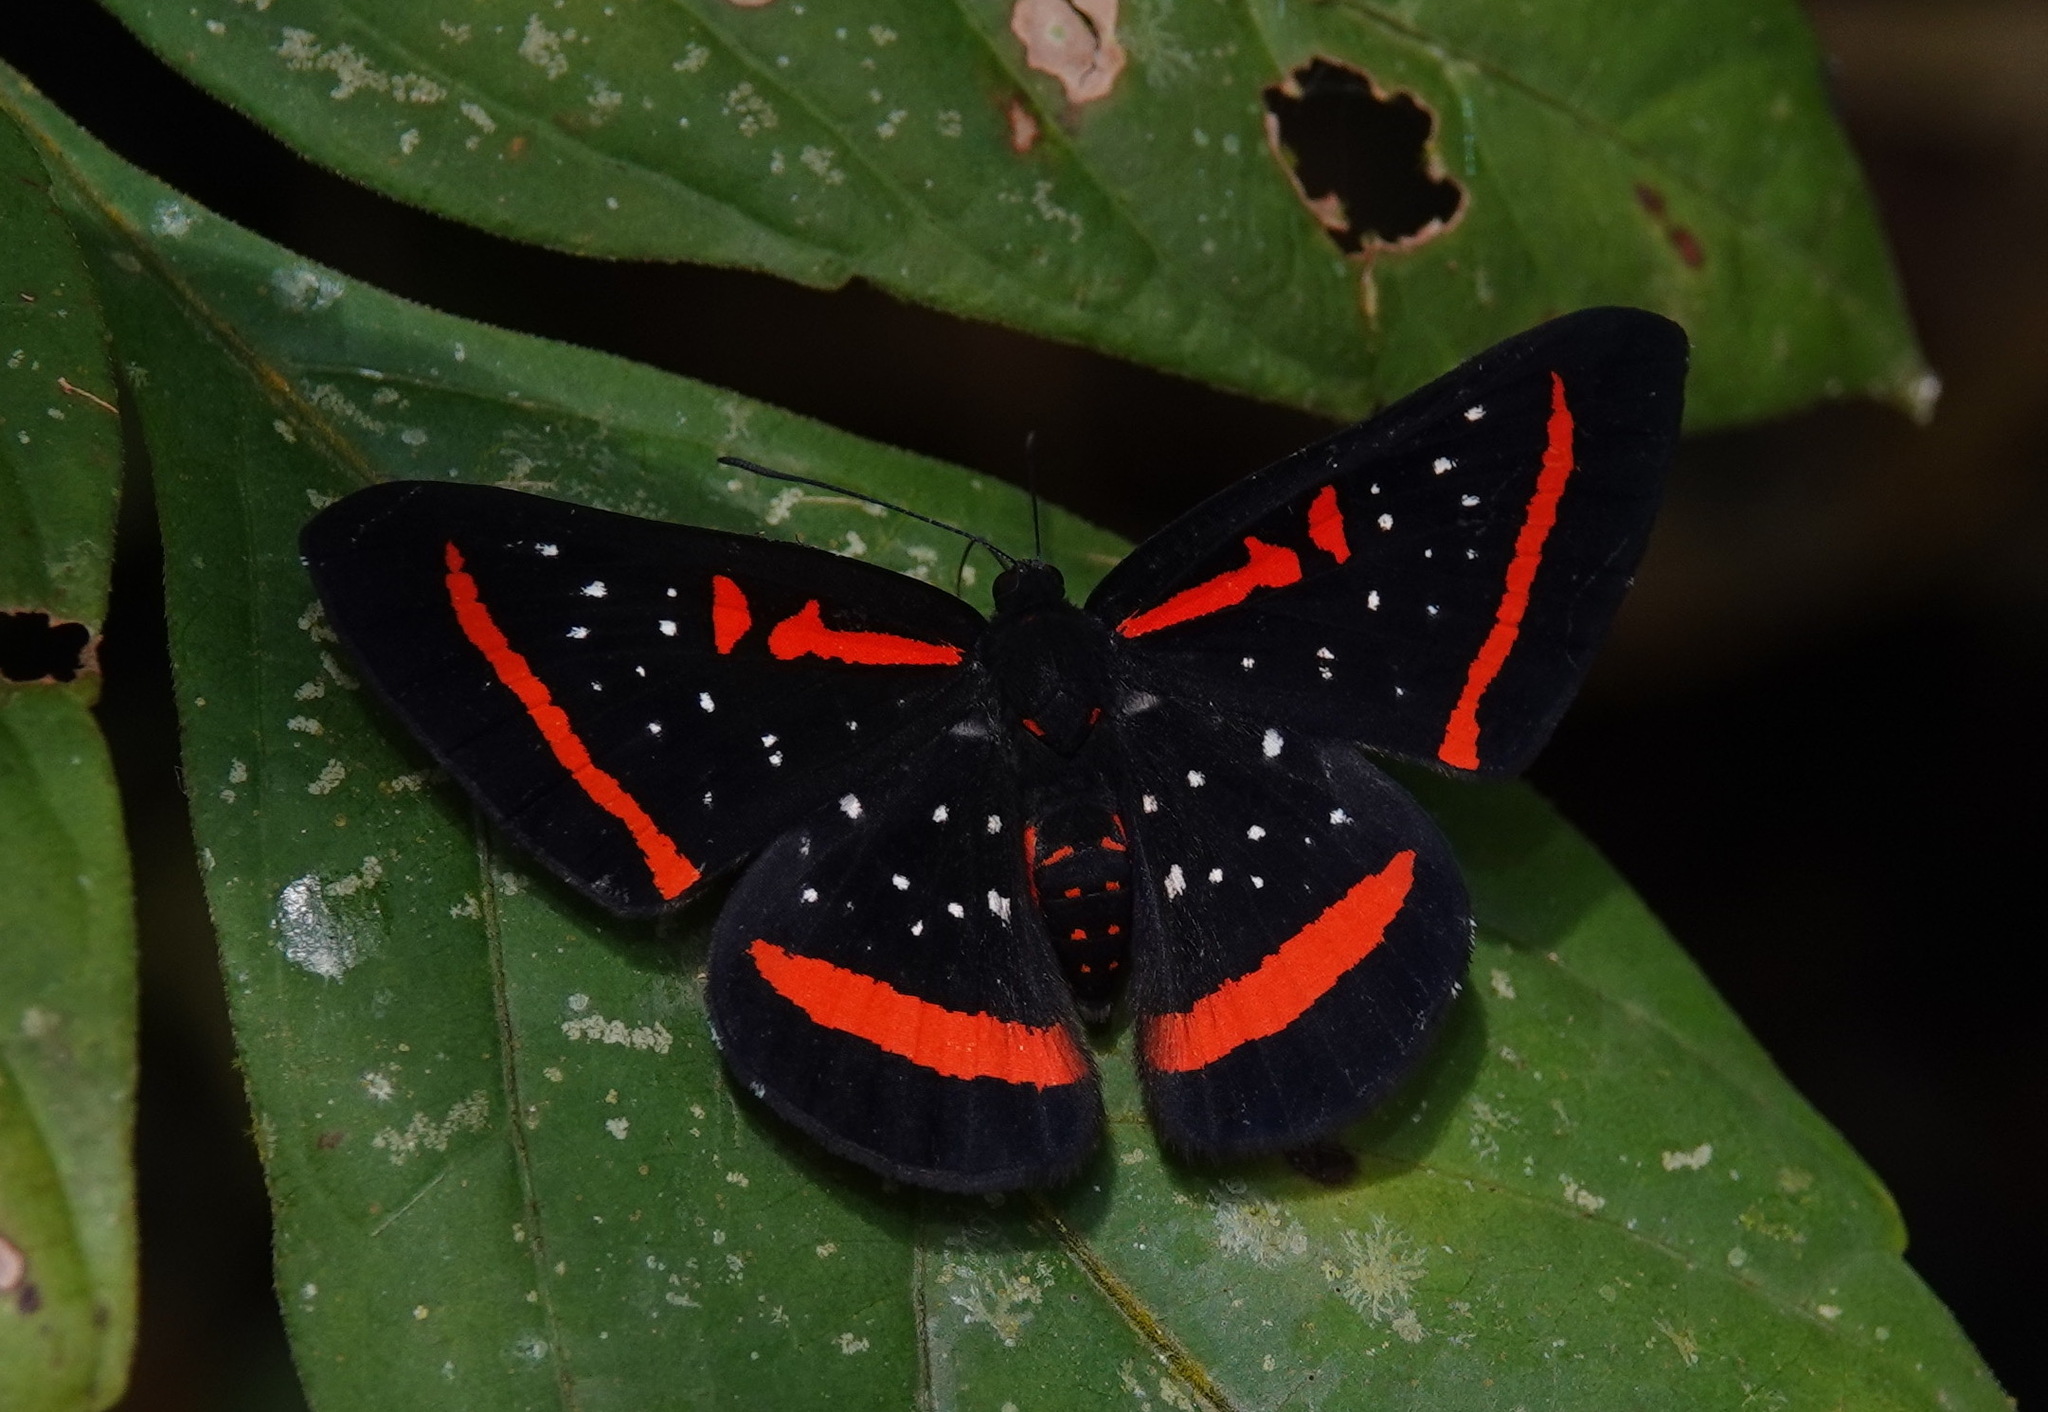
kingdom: Animalia
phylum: Arthropoda
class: Insecta
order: Lepidoptera
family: Riodinidae
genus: Amarynthis
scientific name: Amarynthis meneria
